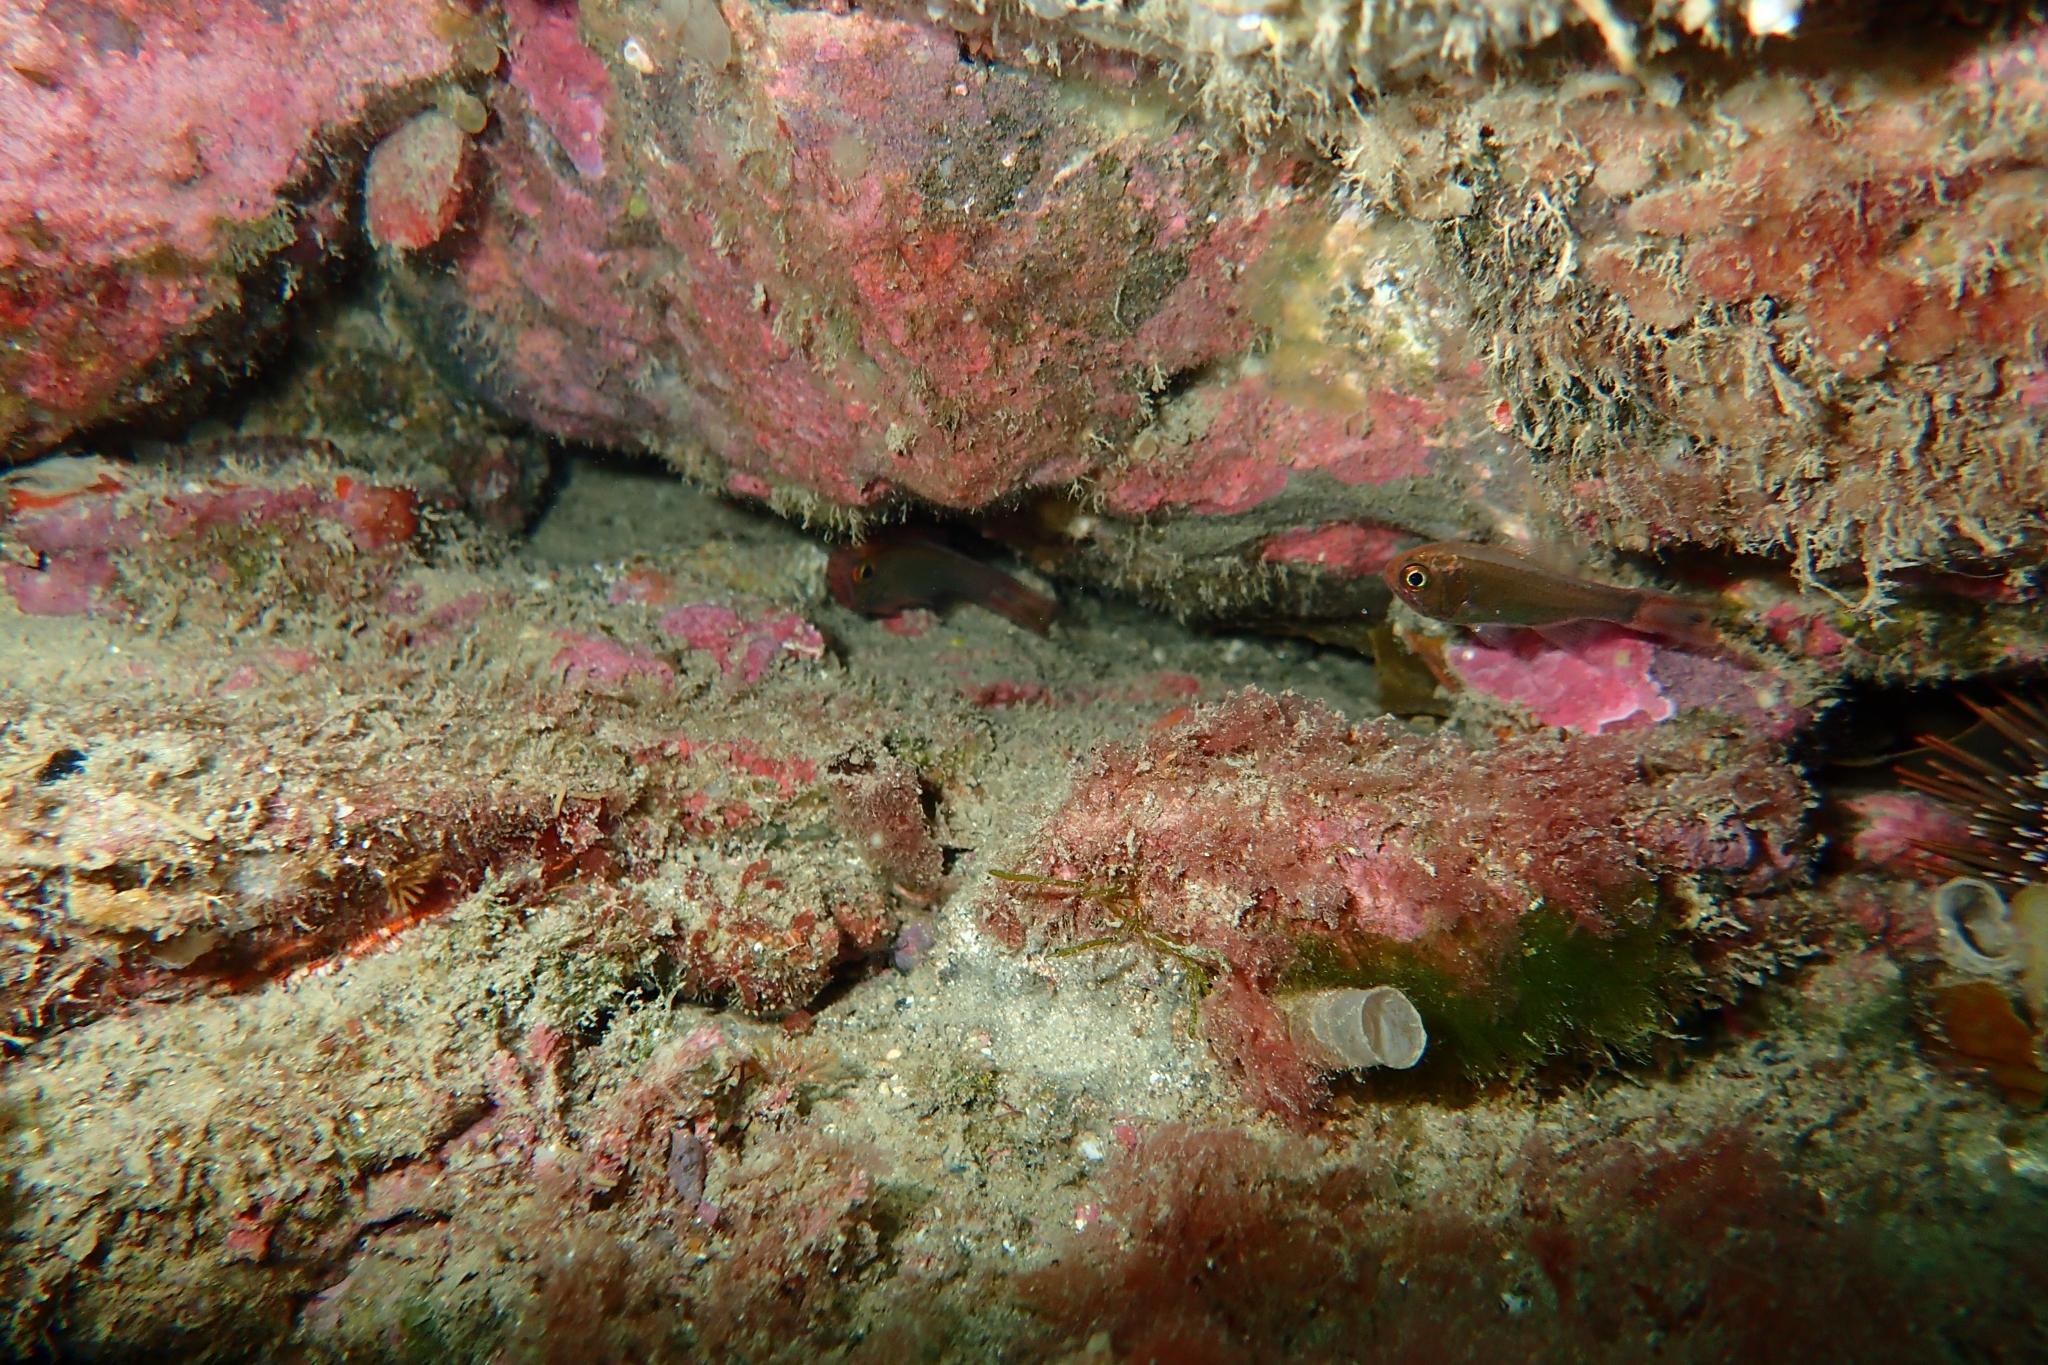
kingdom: Animalia
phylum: Chordata
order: Beryciformes
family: Trachichthyidae
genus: Optivus
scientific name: Optivus elongatus
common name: Slender roughy
